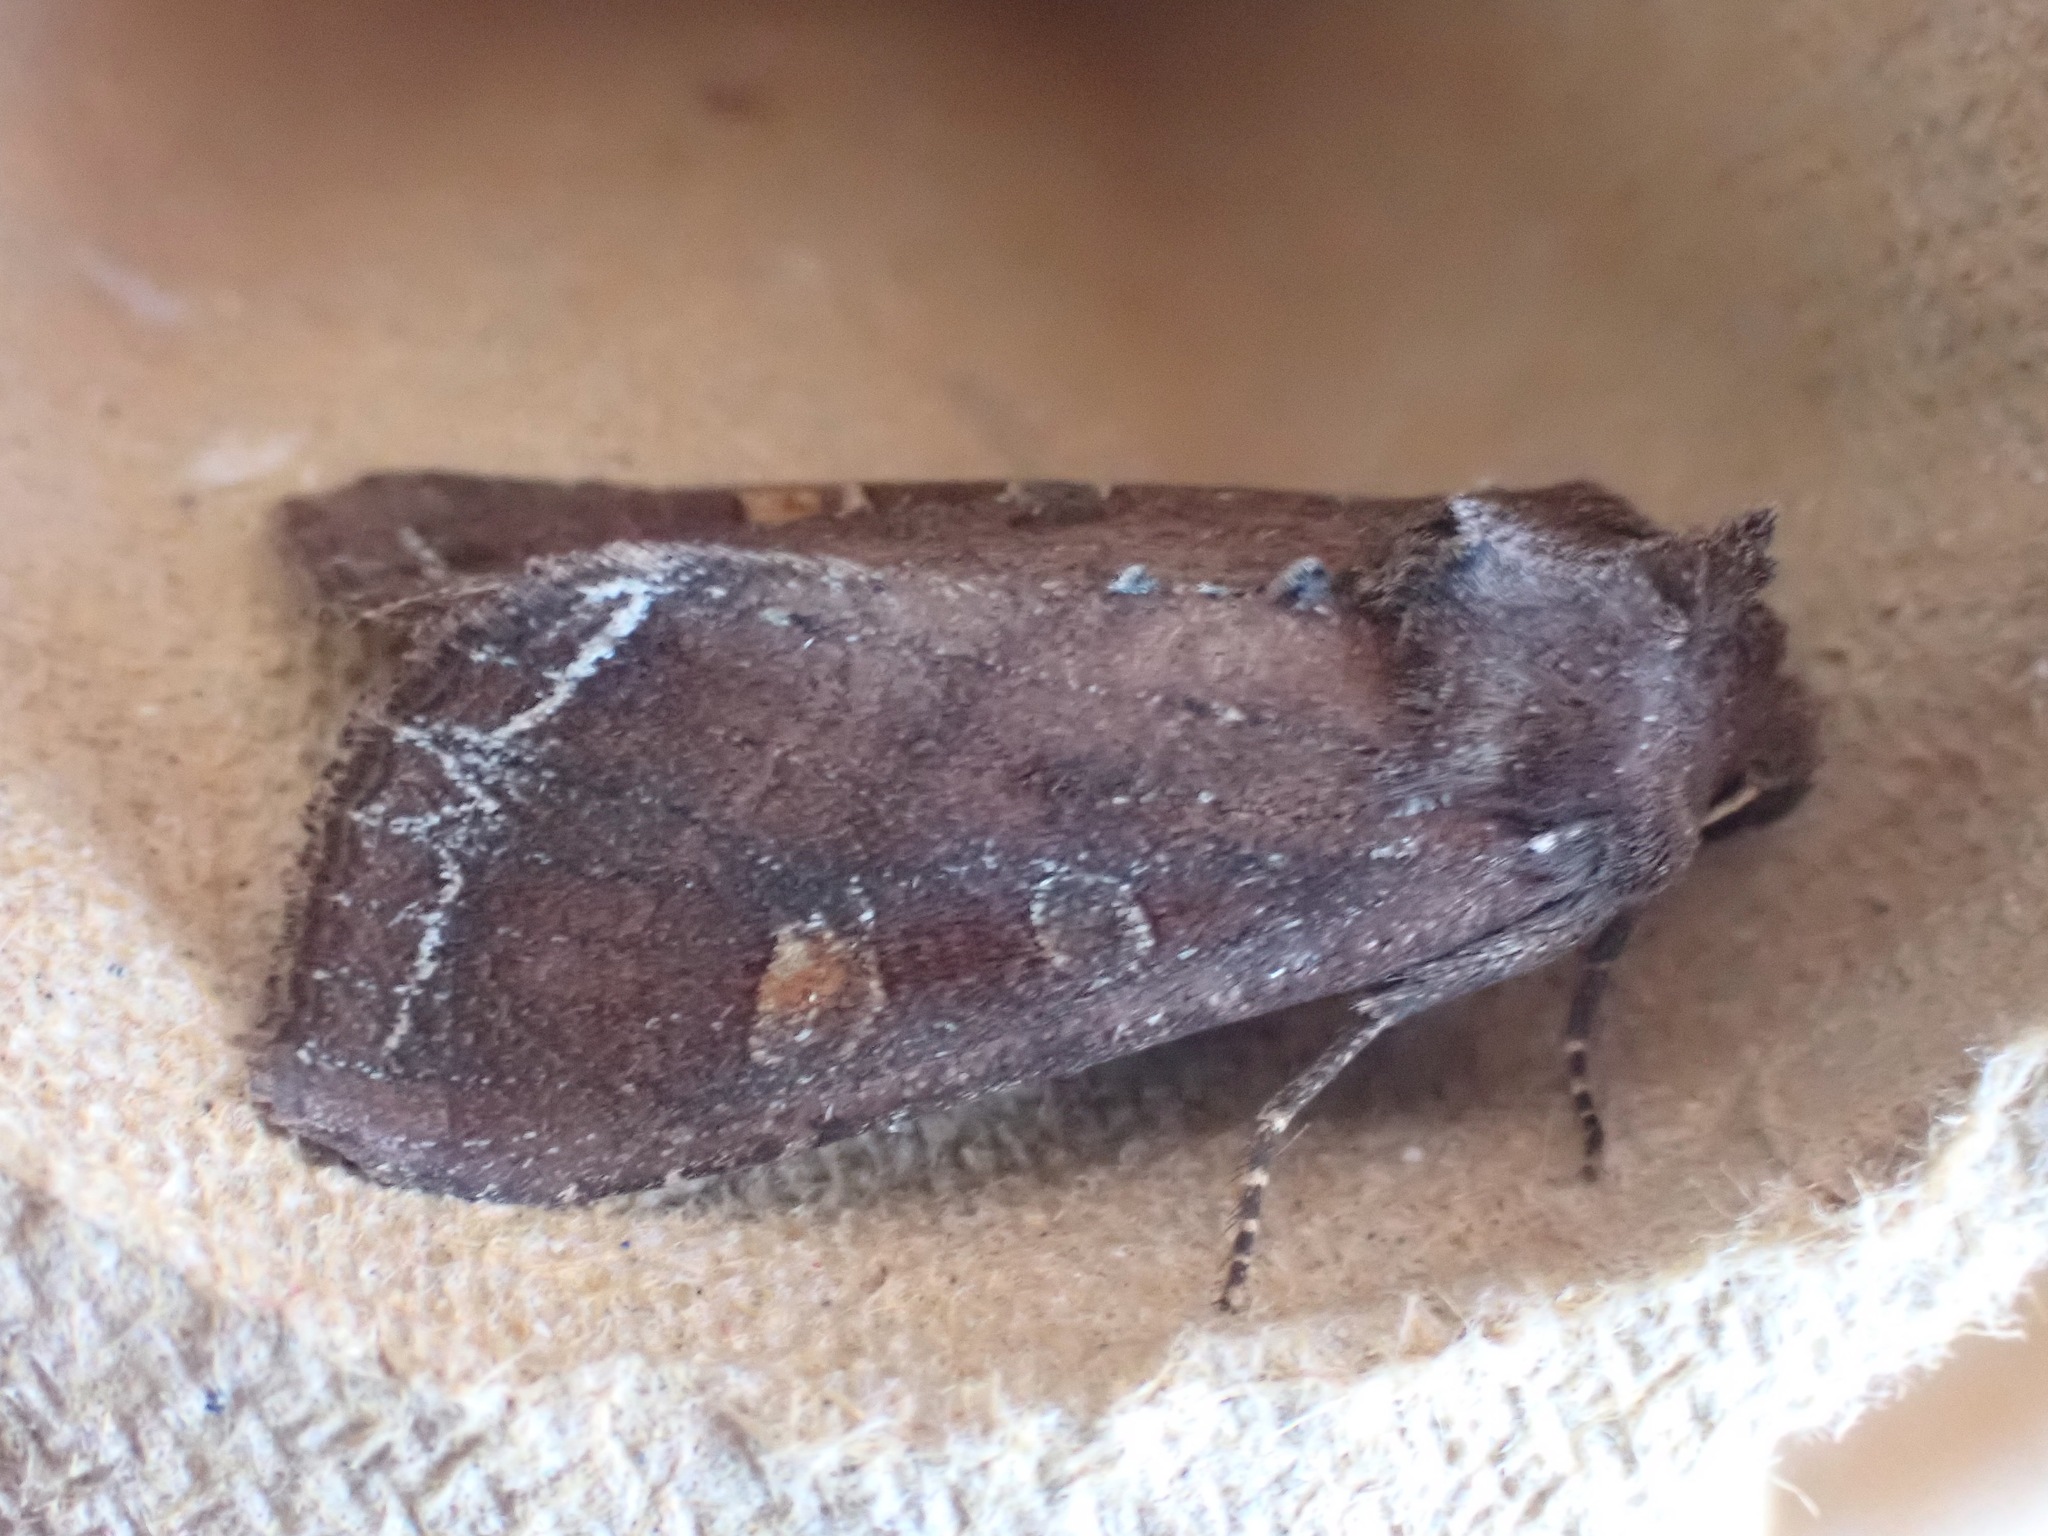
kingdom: Animalia
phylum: Arthropoda
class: Insecta
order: Lepidoptera
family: Noctuidae
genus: Lacanobia
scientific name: Lacanobia oleracea
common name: Bright-line brown-eye
